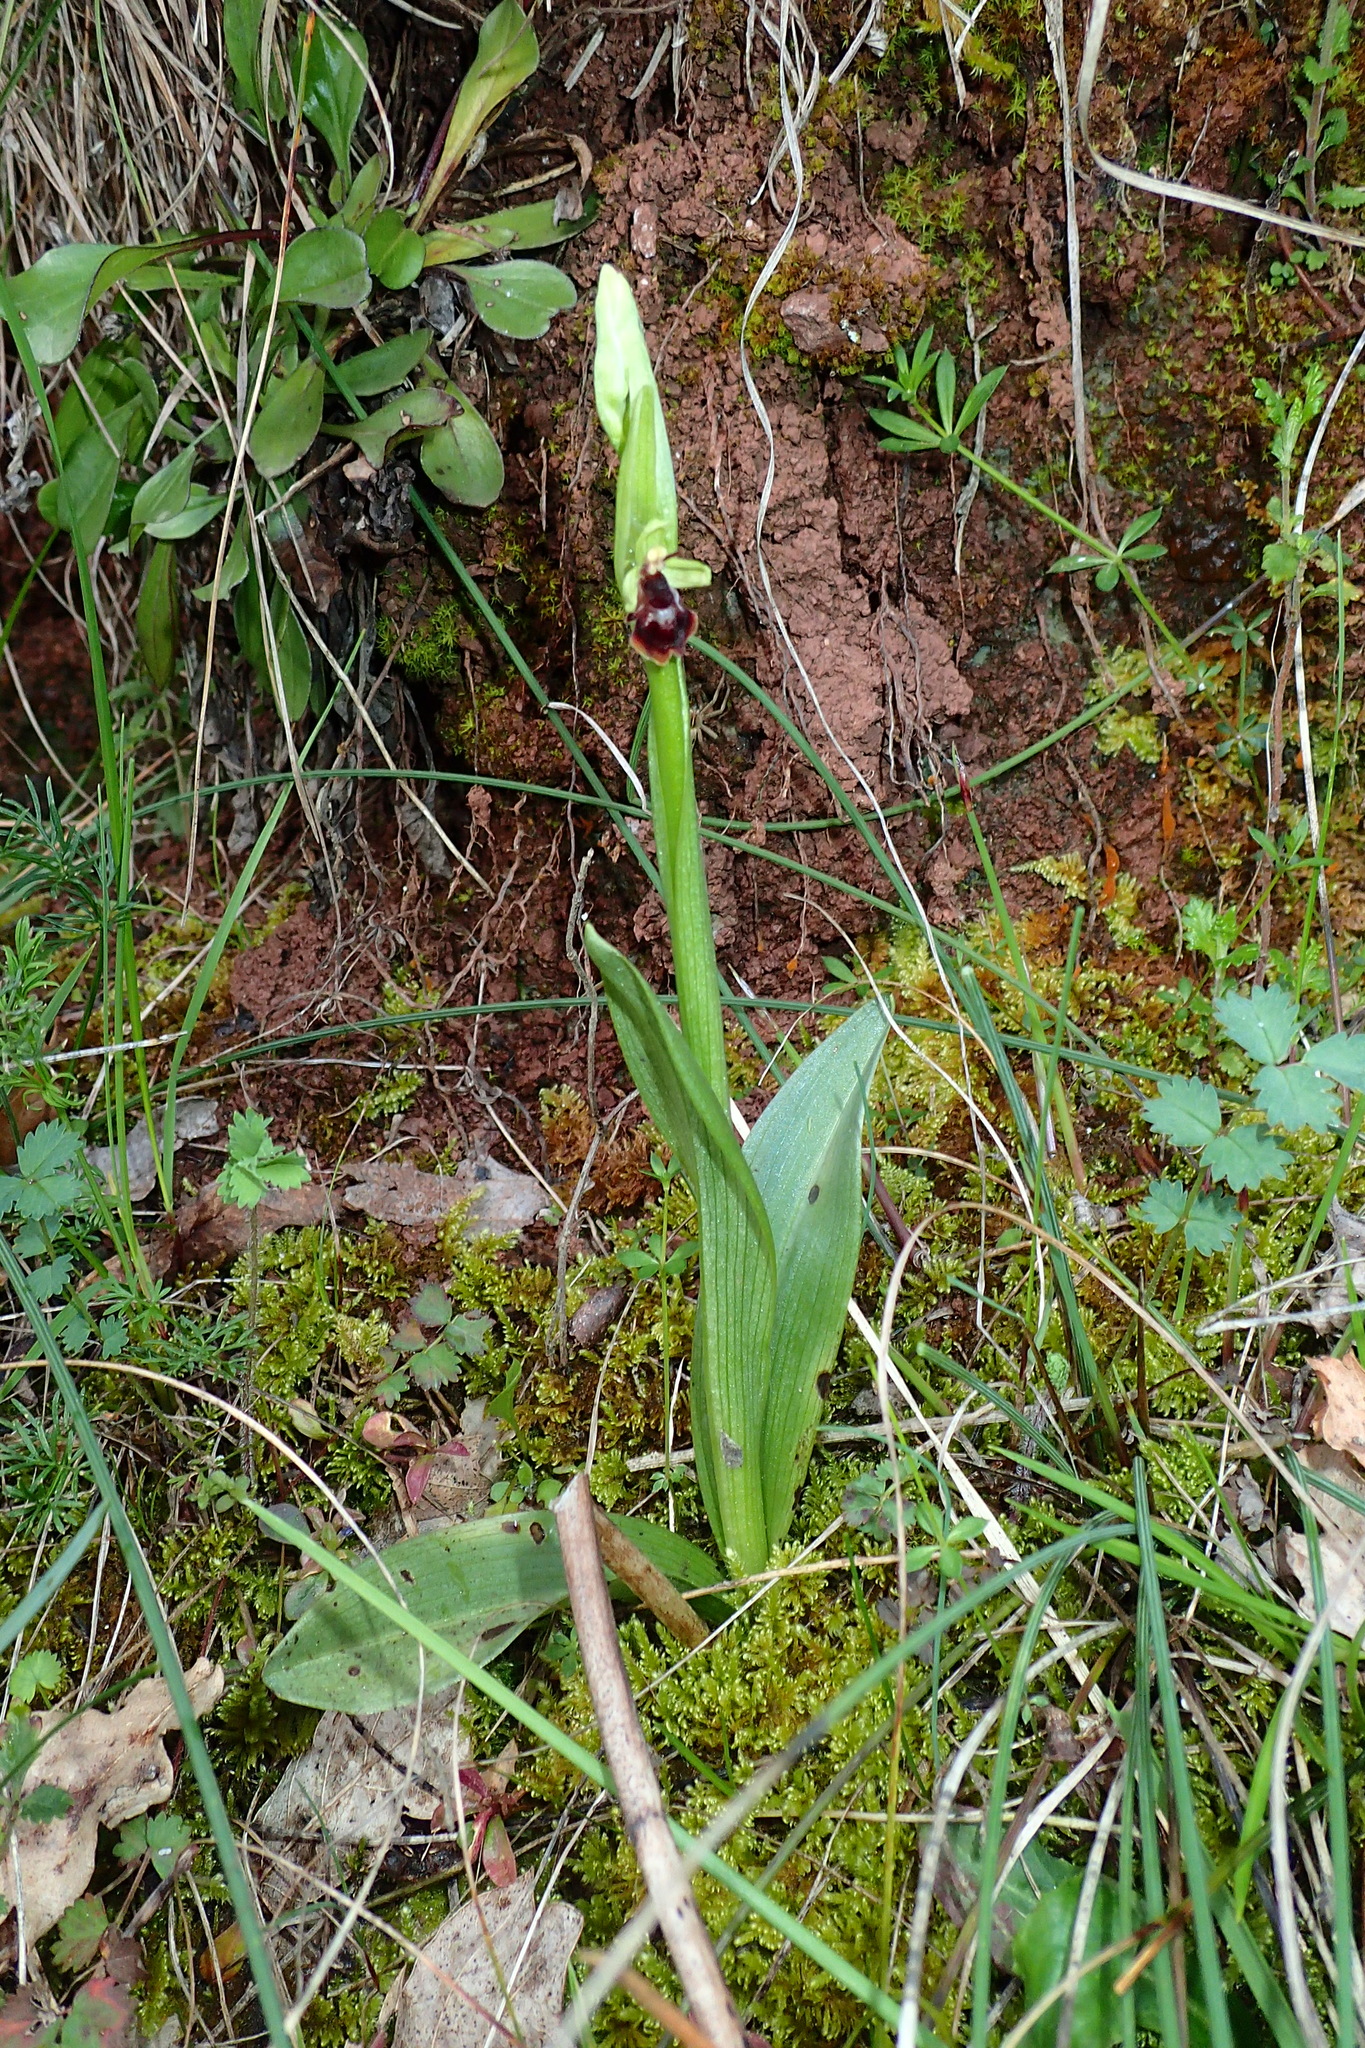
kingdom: Plantae
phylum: Tracheophyta
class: Liliopsida
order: Asparagales
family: Orchidaceae
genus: Ophrys
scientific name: Ophrys insectifera
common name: Fly orchid
